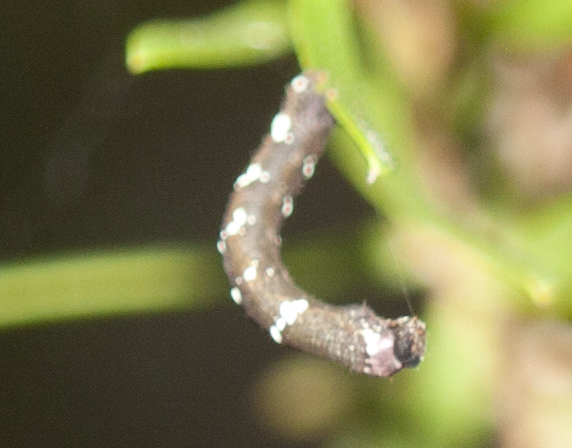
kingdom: Animalia
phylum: Arthropoda
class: Insecta
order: Lepidoptera
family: Geometridae
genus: Pholodes
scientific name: Pholodes sinistraria
